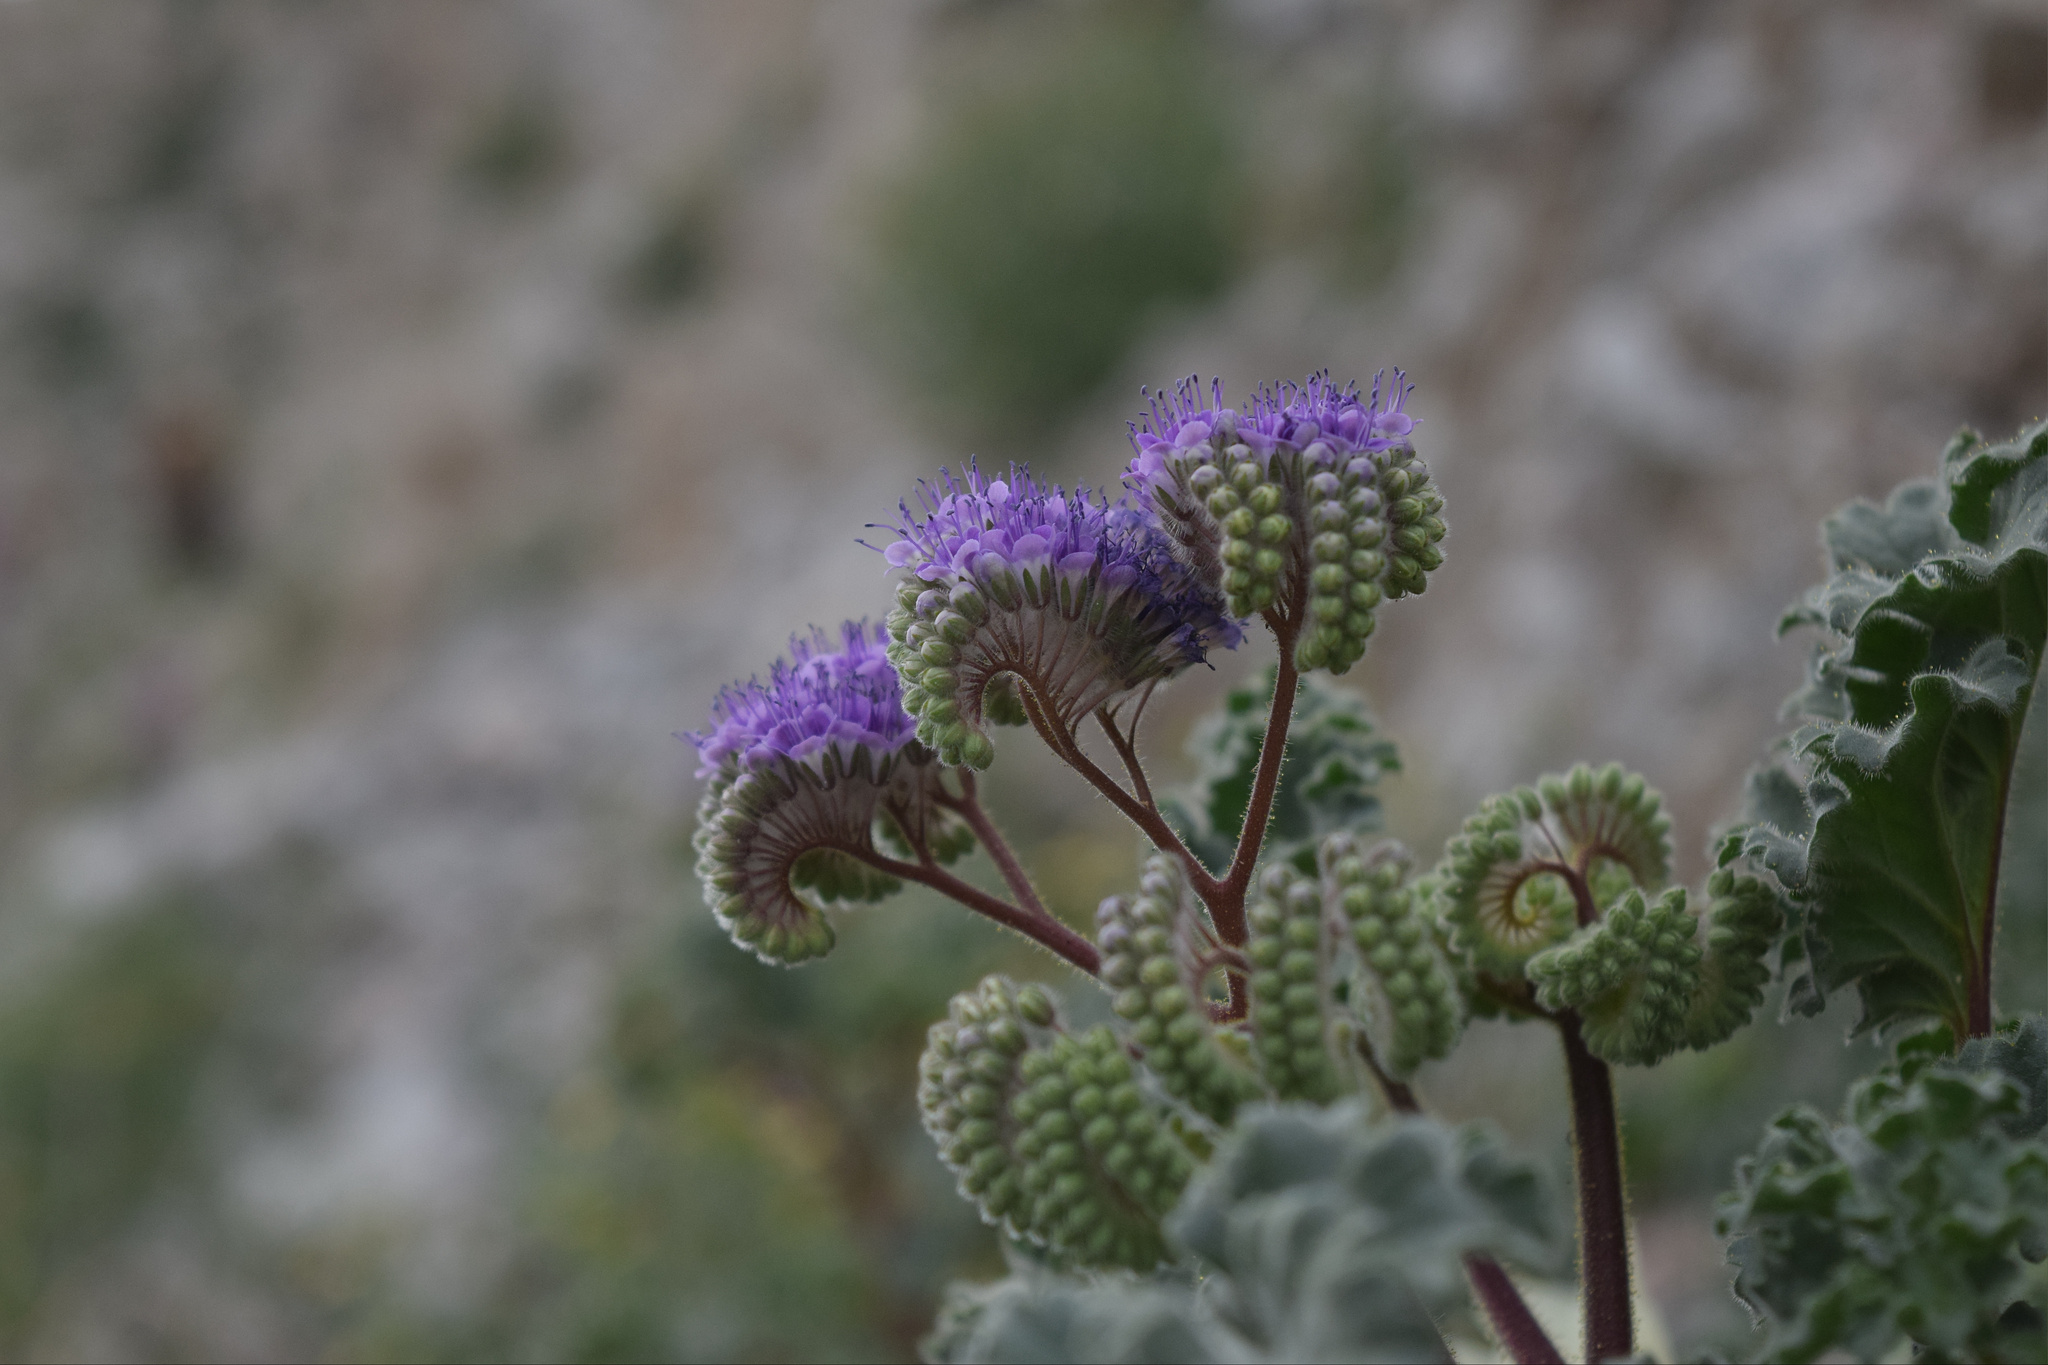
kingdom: Plantae
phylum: Tracheophyta
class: Magnoliopsida
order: Boraginales
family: Hydrophyllaceae
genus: Phacelia
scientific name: Phacelia pedicellata
